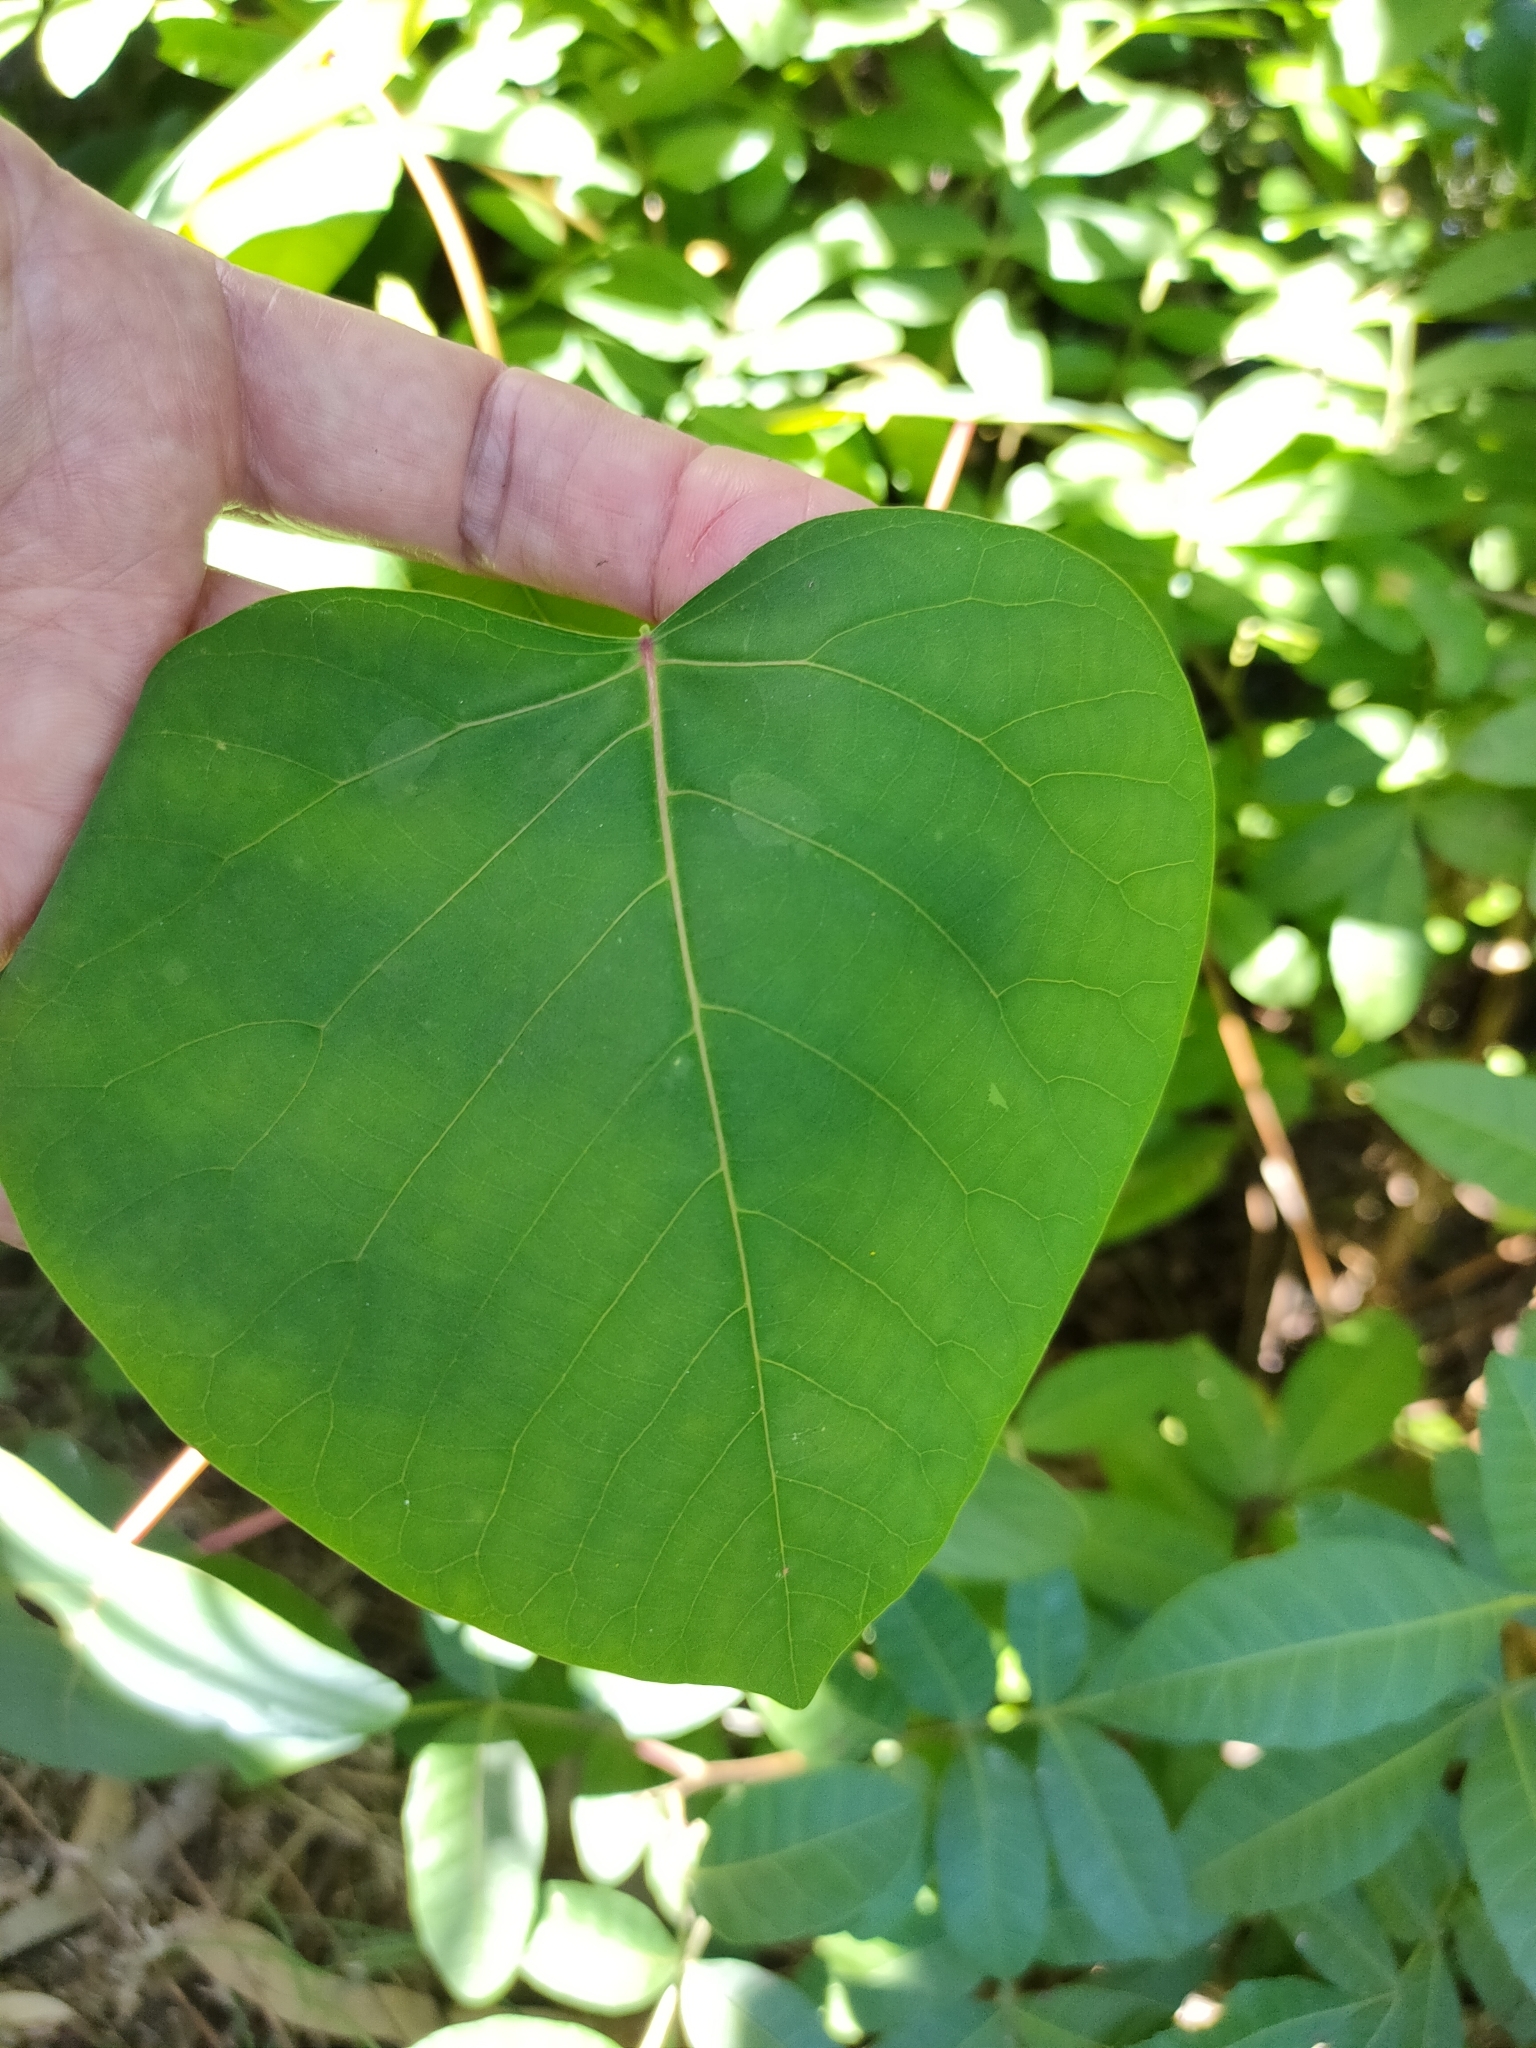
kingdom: Plantae
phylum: Tracheophyta
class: Magnoliopsida
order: Malpighiales
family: Euphorbiaceae
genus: Homalanthus
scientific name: Homalanthus populifolius
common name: Queensland poplar
